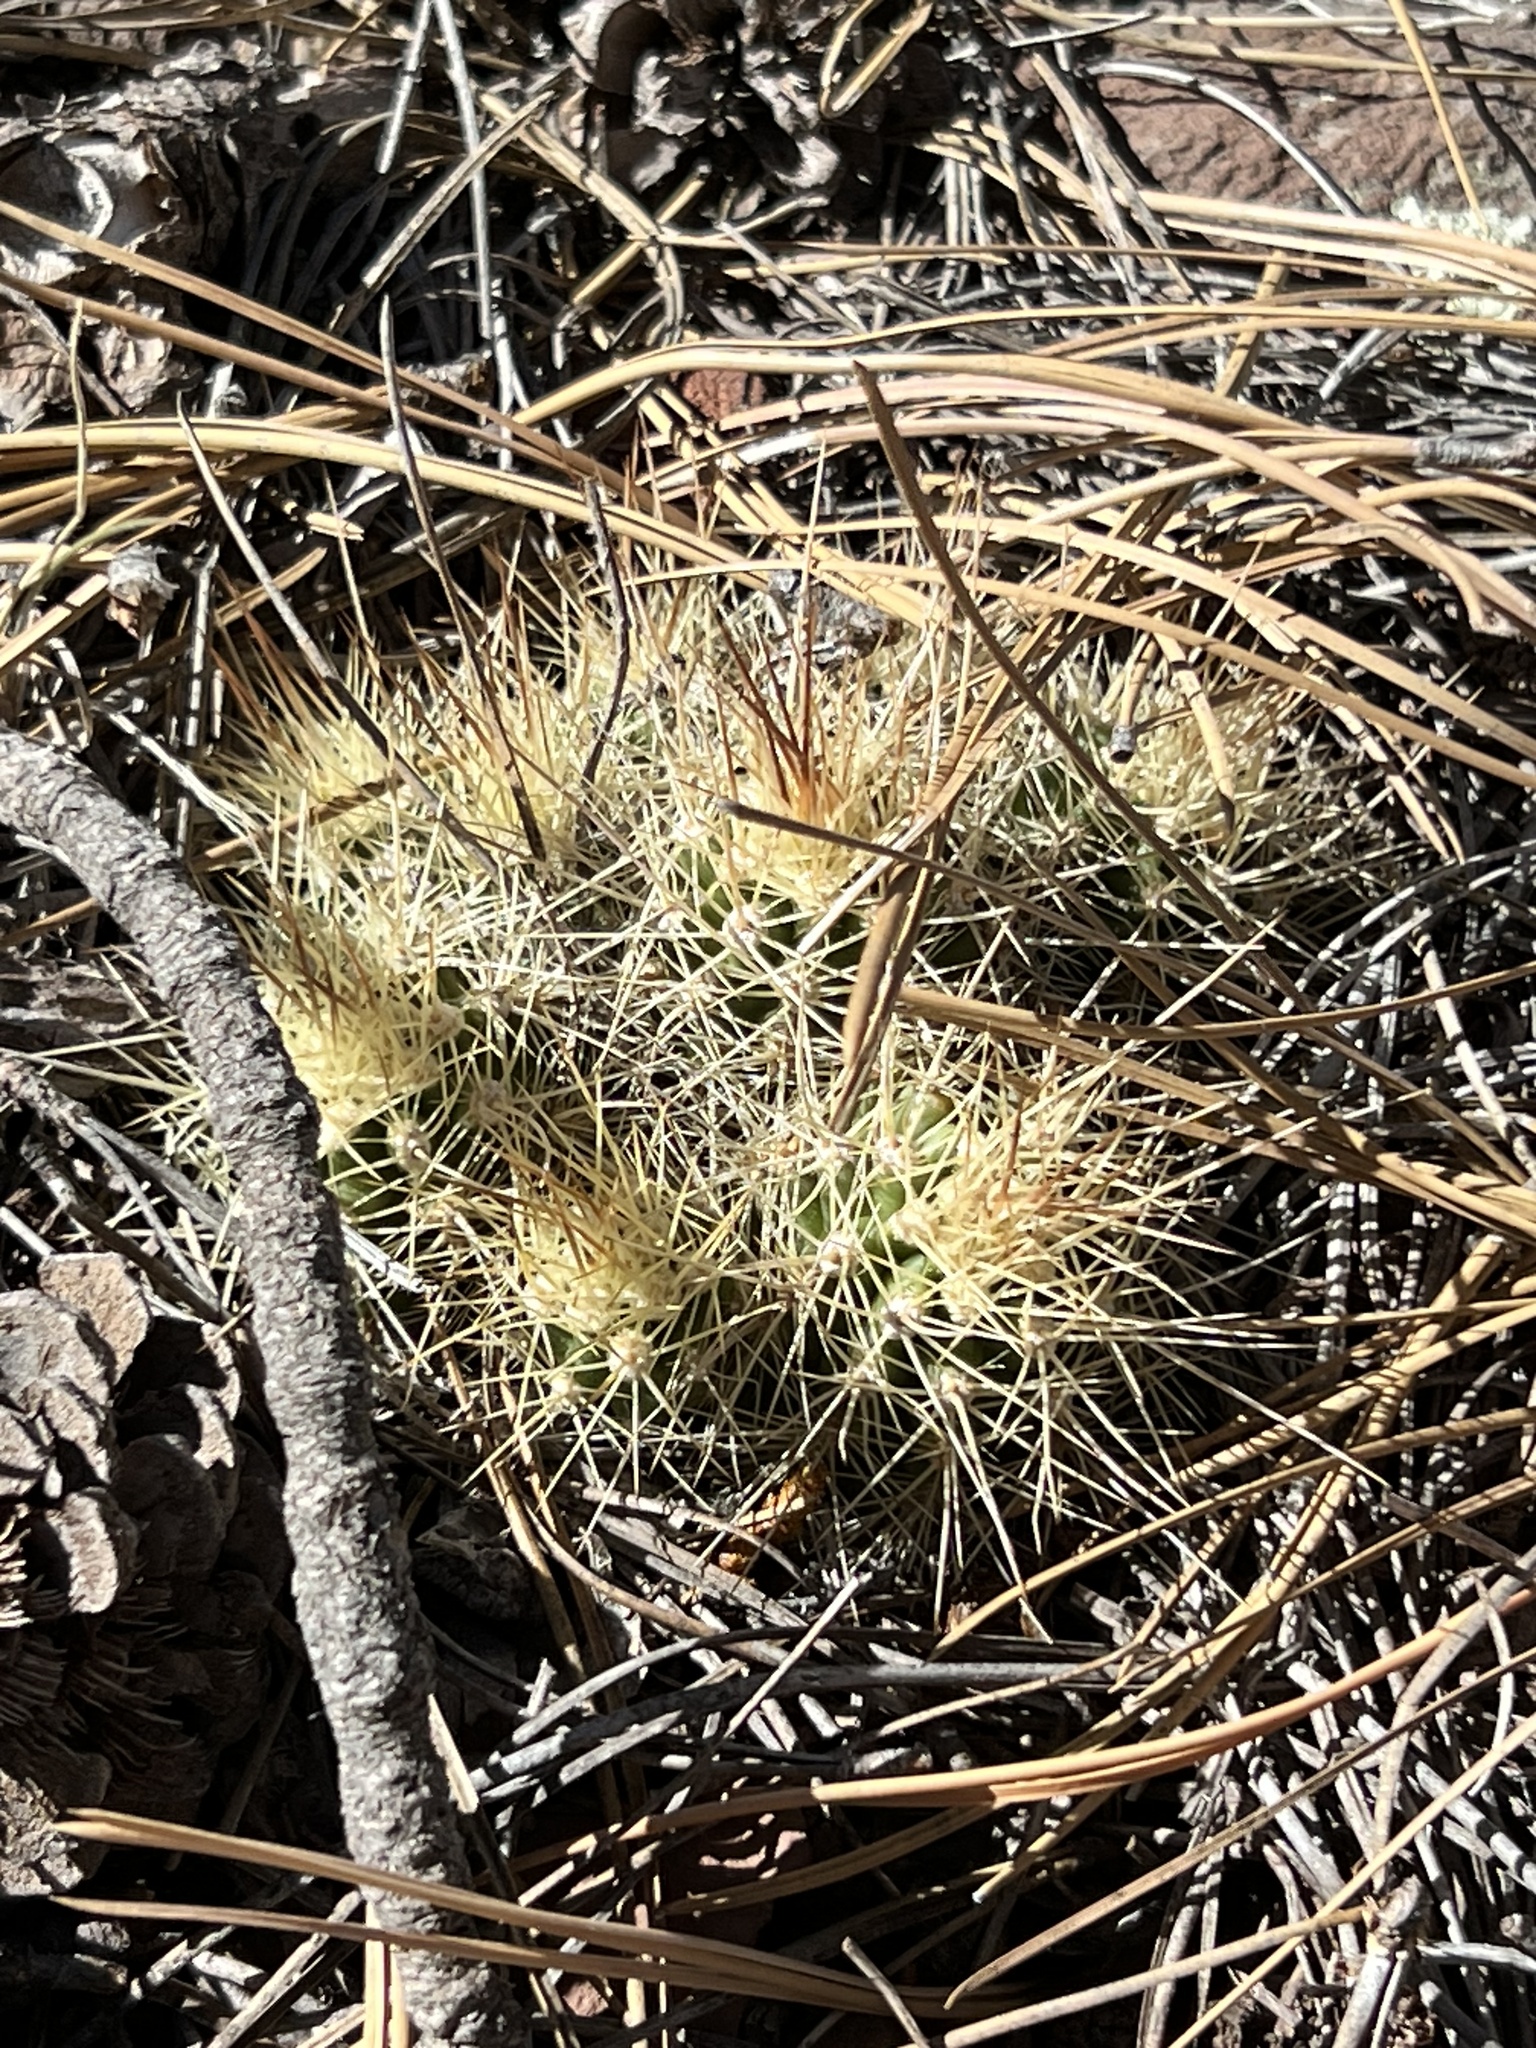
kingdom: Plantae
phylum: Tracheophyta
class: Magnoliopsida
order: Caryophyllales
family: Cactaceae
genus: Echinocereus
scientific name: Echinocereus bakeri
